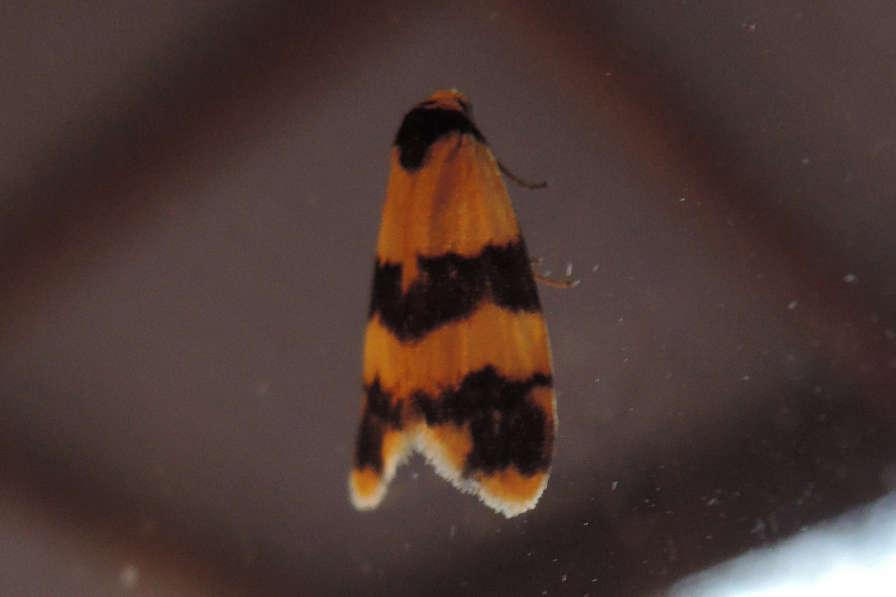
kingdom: Animalia
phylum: Arthropoda
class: Insecta
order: Lepidoptera
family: Erebidae
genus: Thallarcha
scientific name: Thallarcha chrysochares
